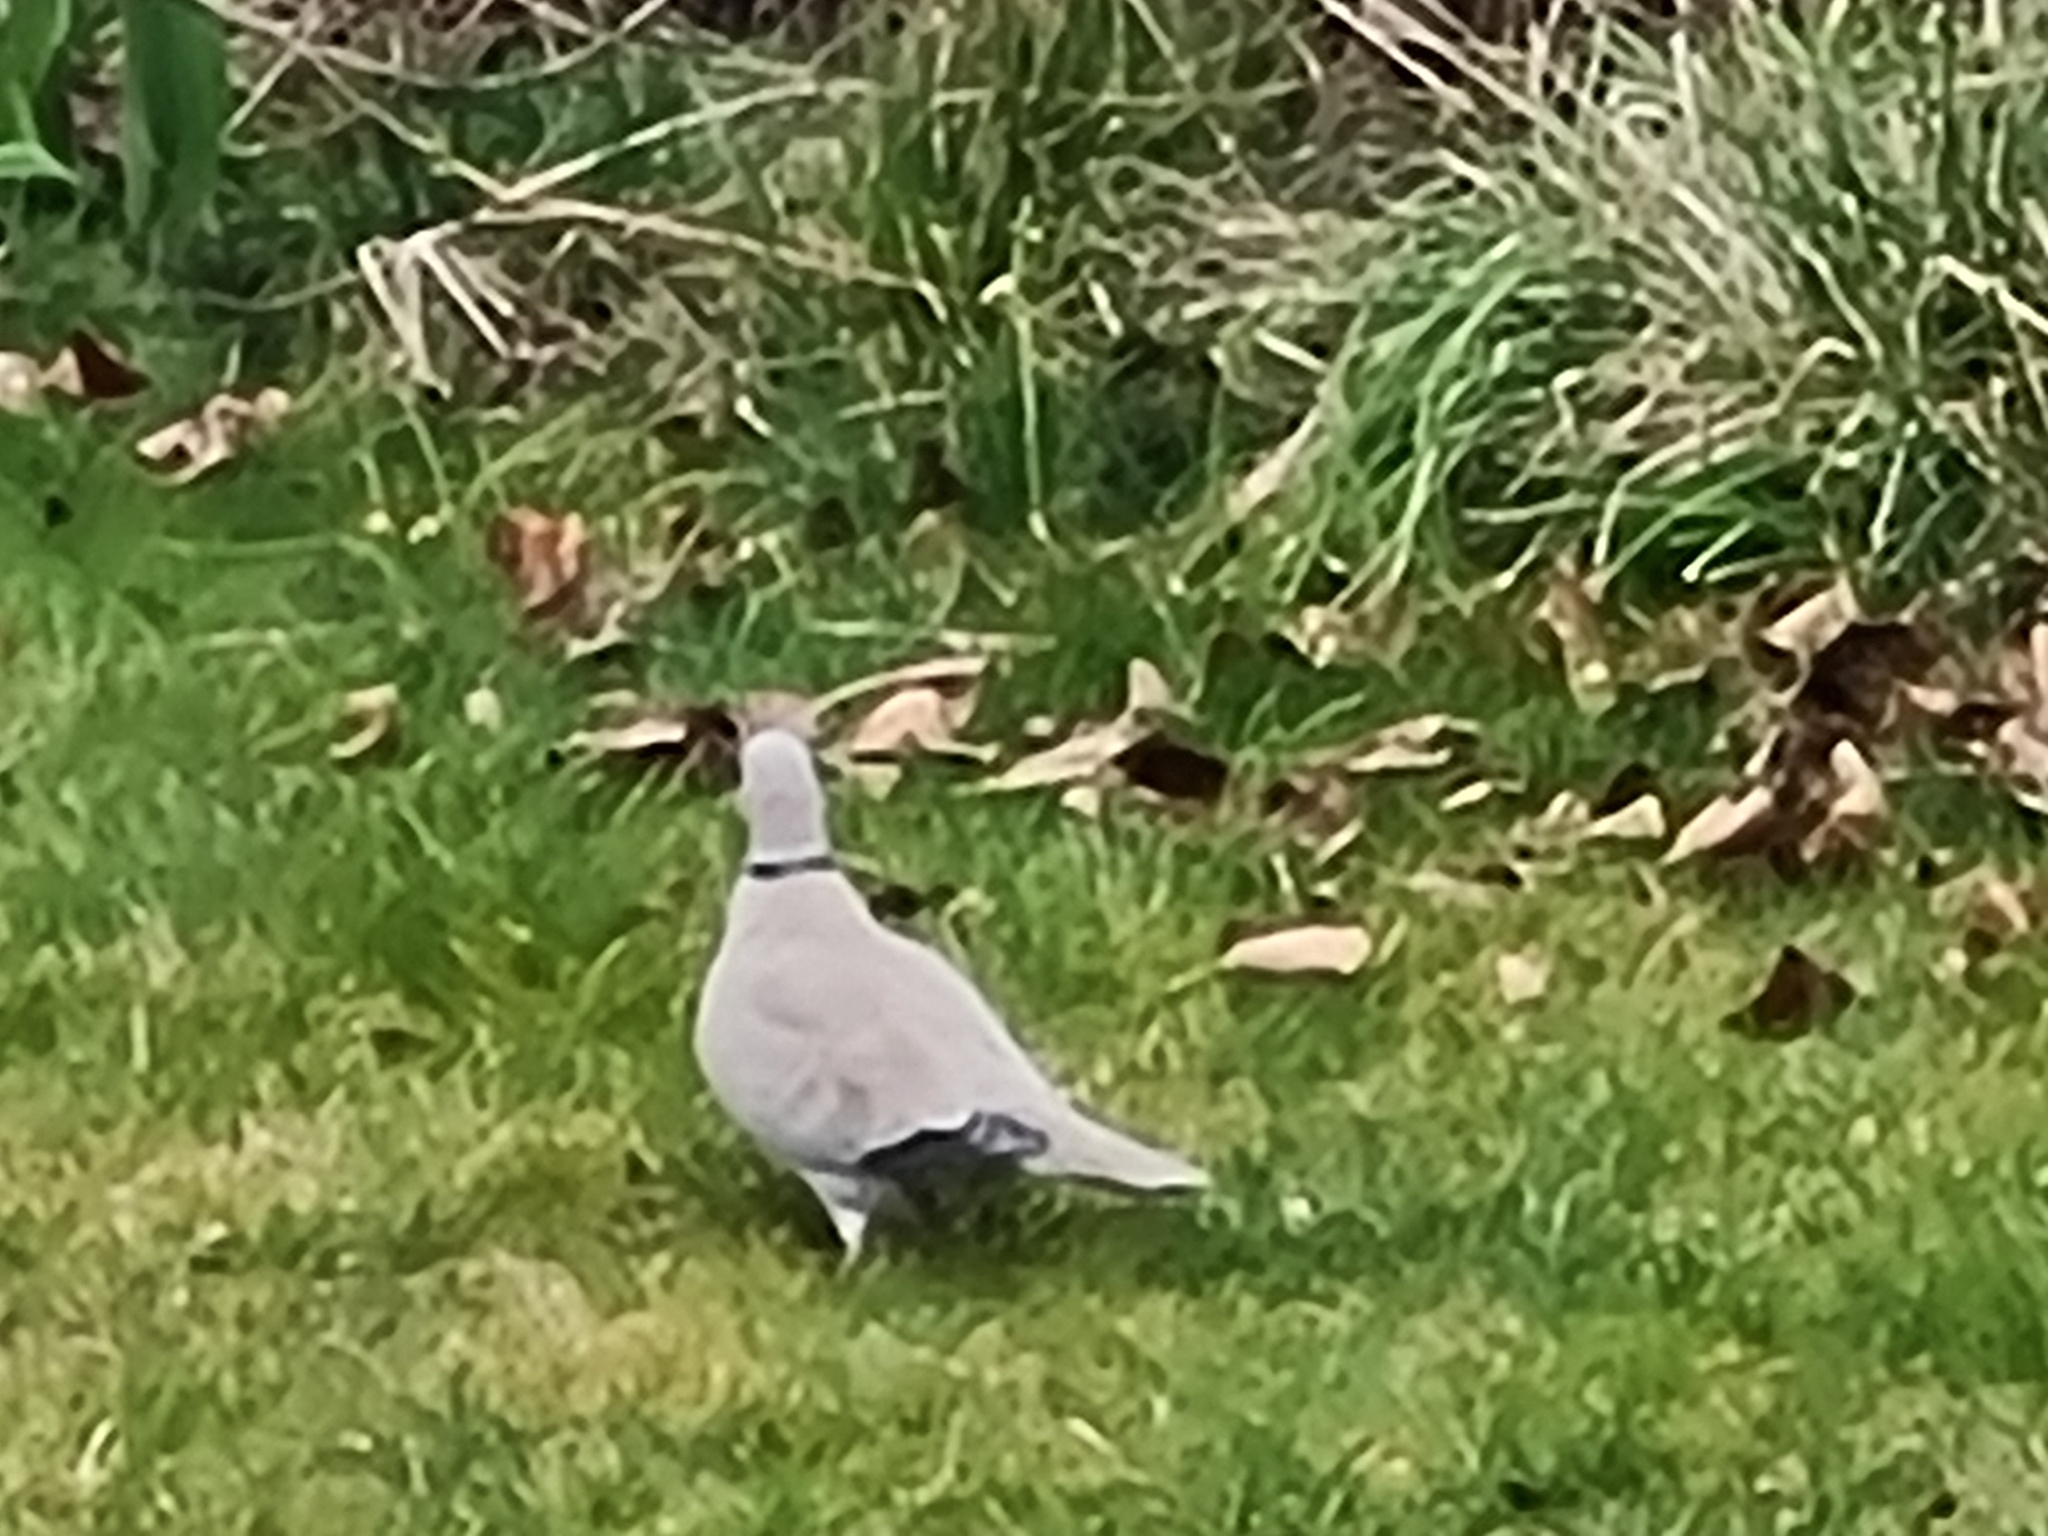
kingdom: Animalia
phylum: Chordata
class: Aves
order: Columbiformes
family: Columbidae
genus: Streptopelia
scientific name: Streptopelia decaocto
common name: Eurasian collared dove
